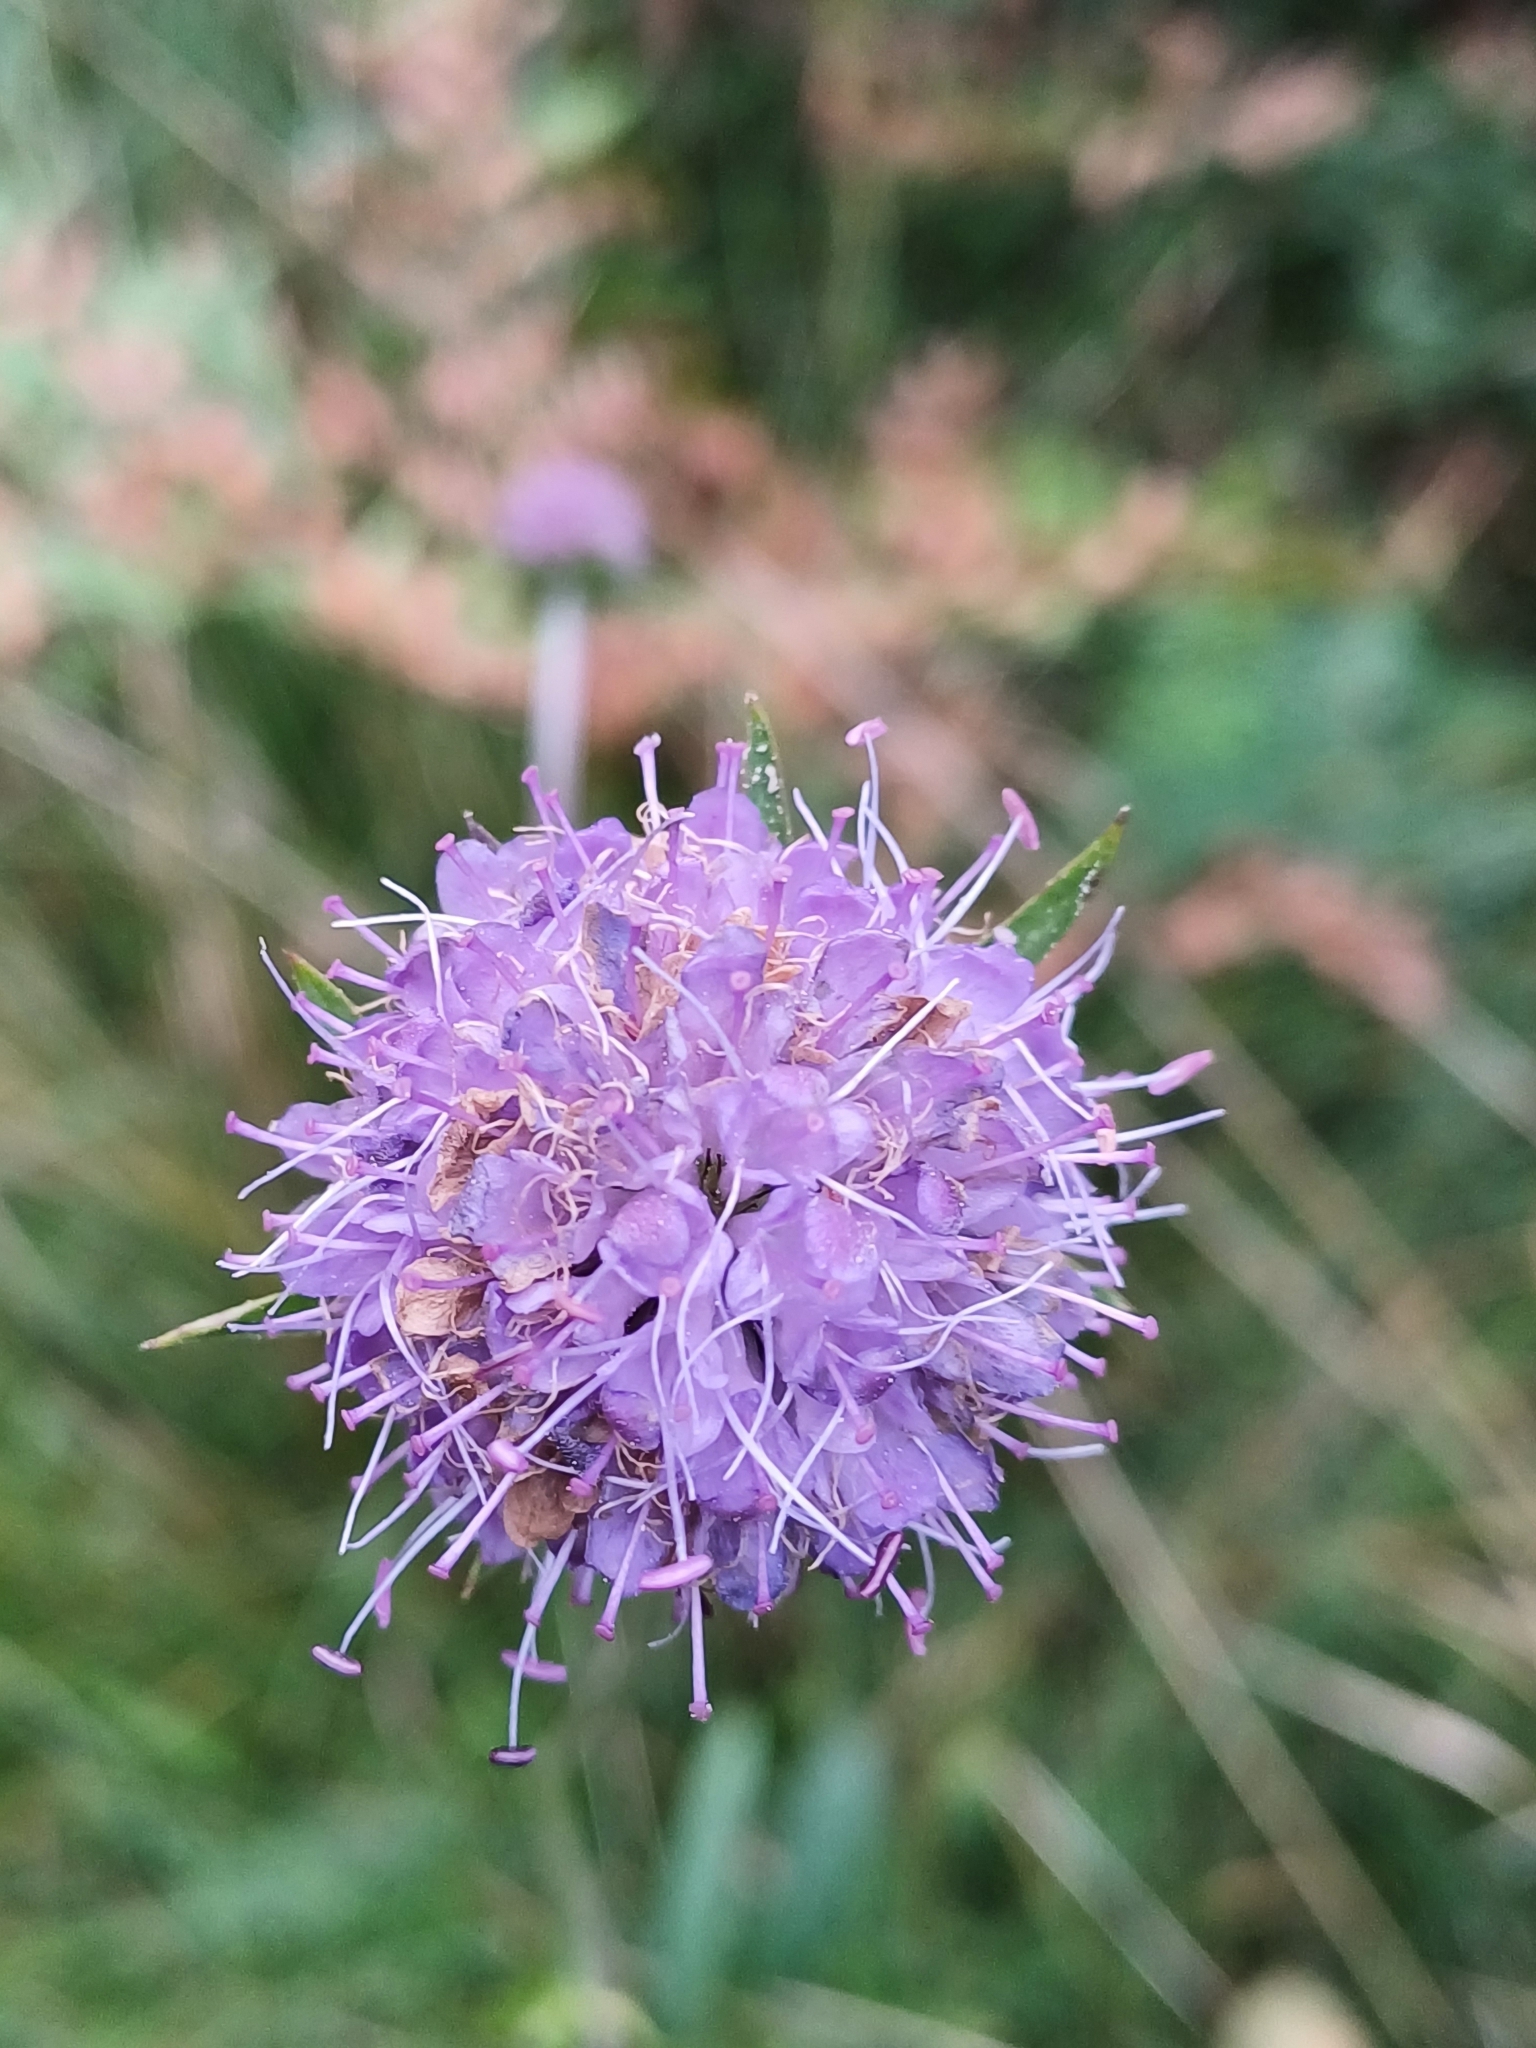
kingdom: Plantae
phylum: Tracheophyta
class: Magnoliopsida
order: Dipsacales
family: Caprifoliaceae
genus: Succisa
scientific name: Succisa pratensis
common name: Devil's-bit
